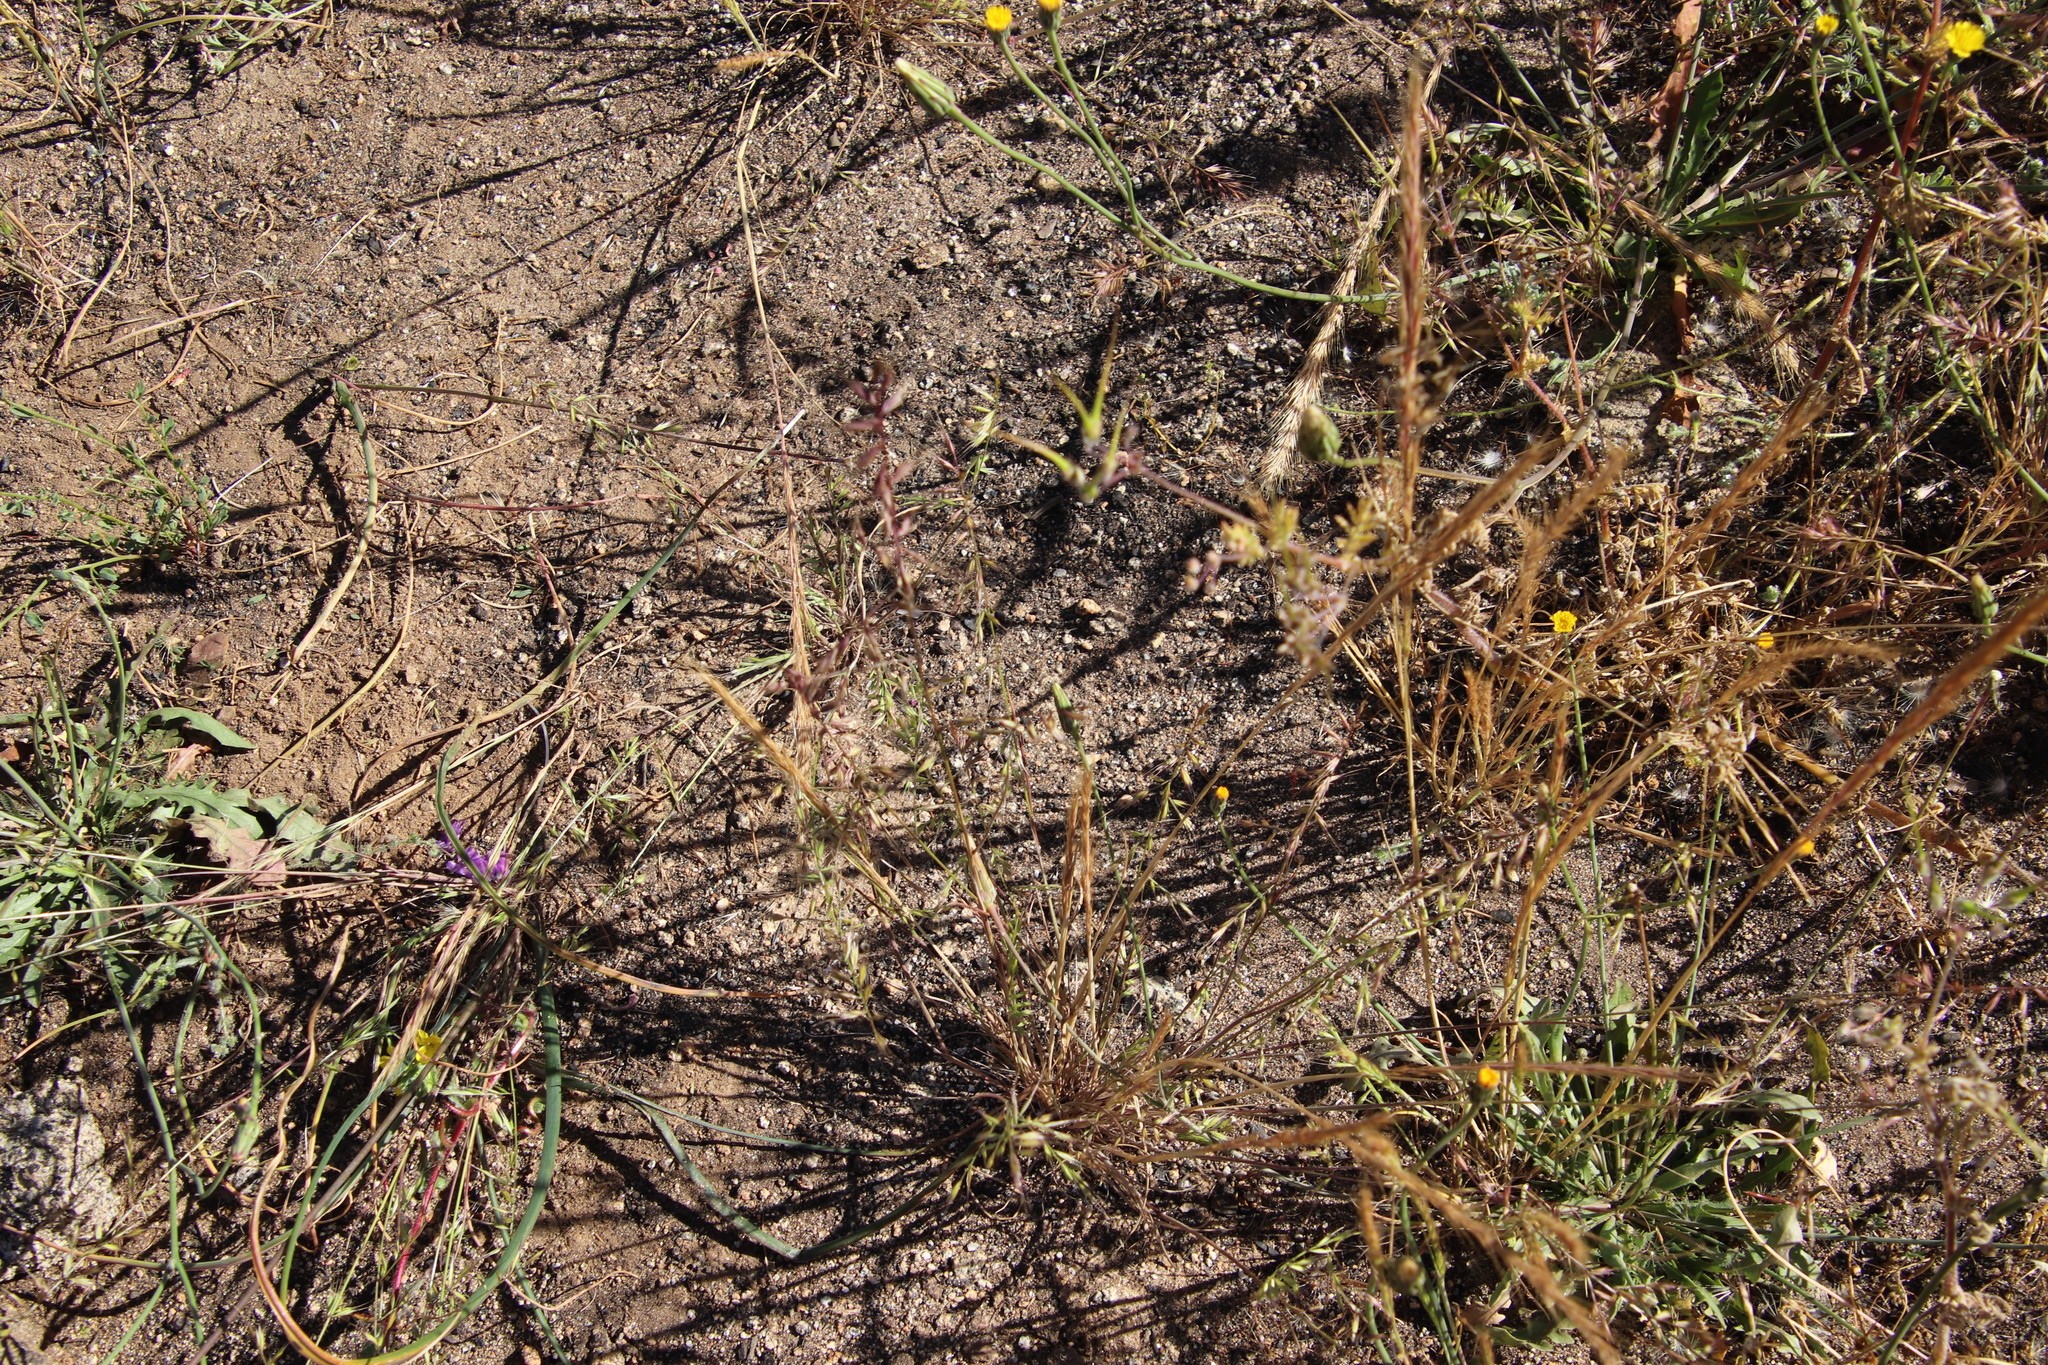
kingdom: Plantae
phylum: Tracheophyta
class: Liliopsida
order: Poales
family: Poaceae
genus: Festuca
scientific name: Festuca microstachys
